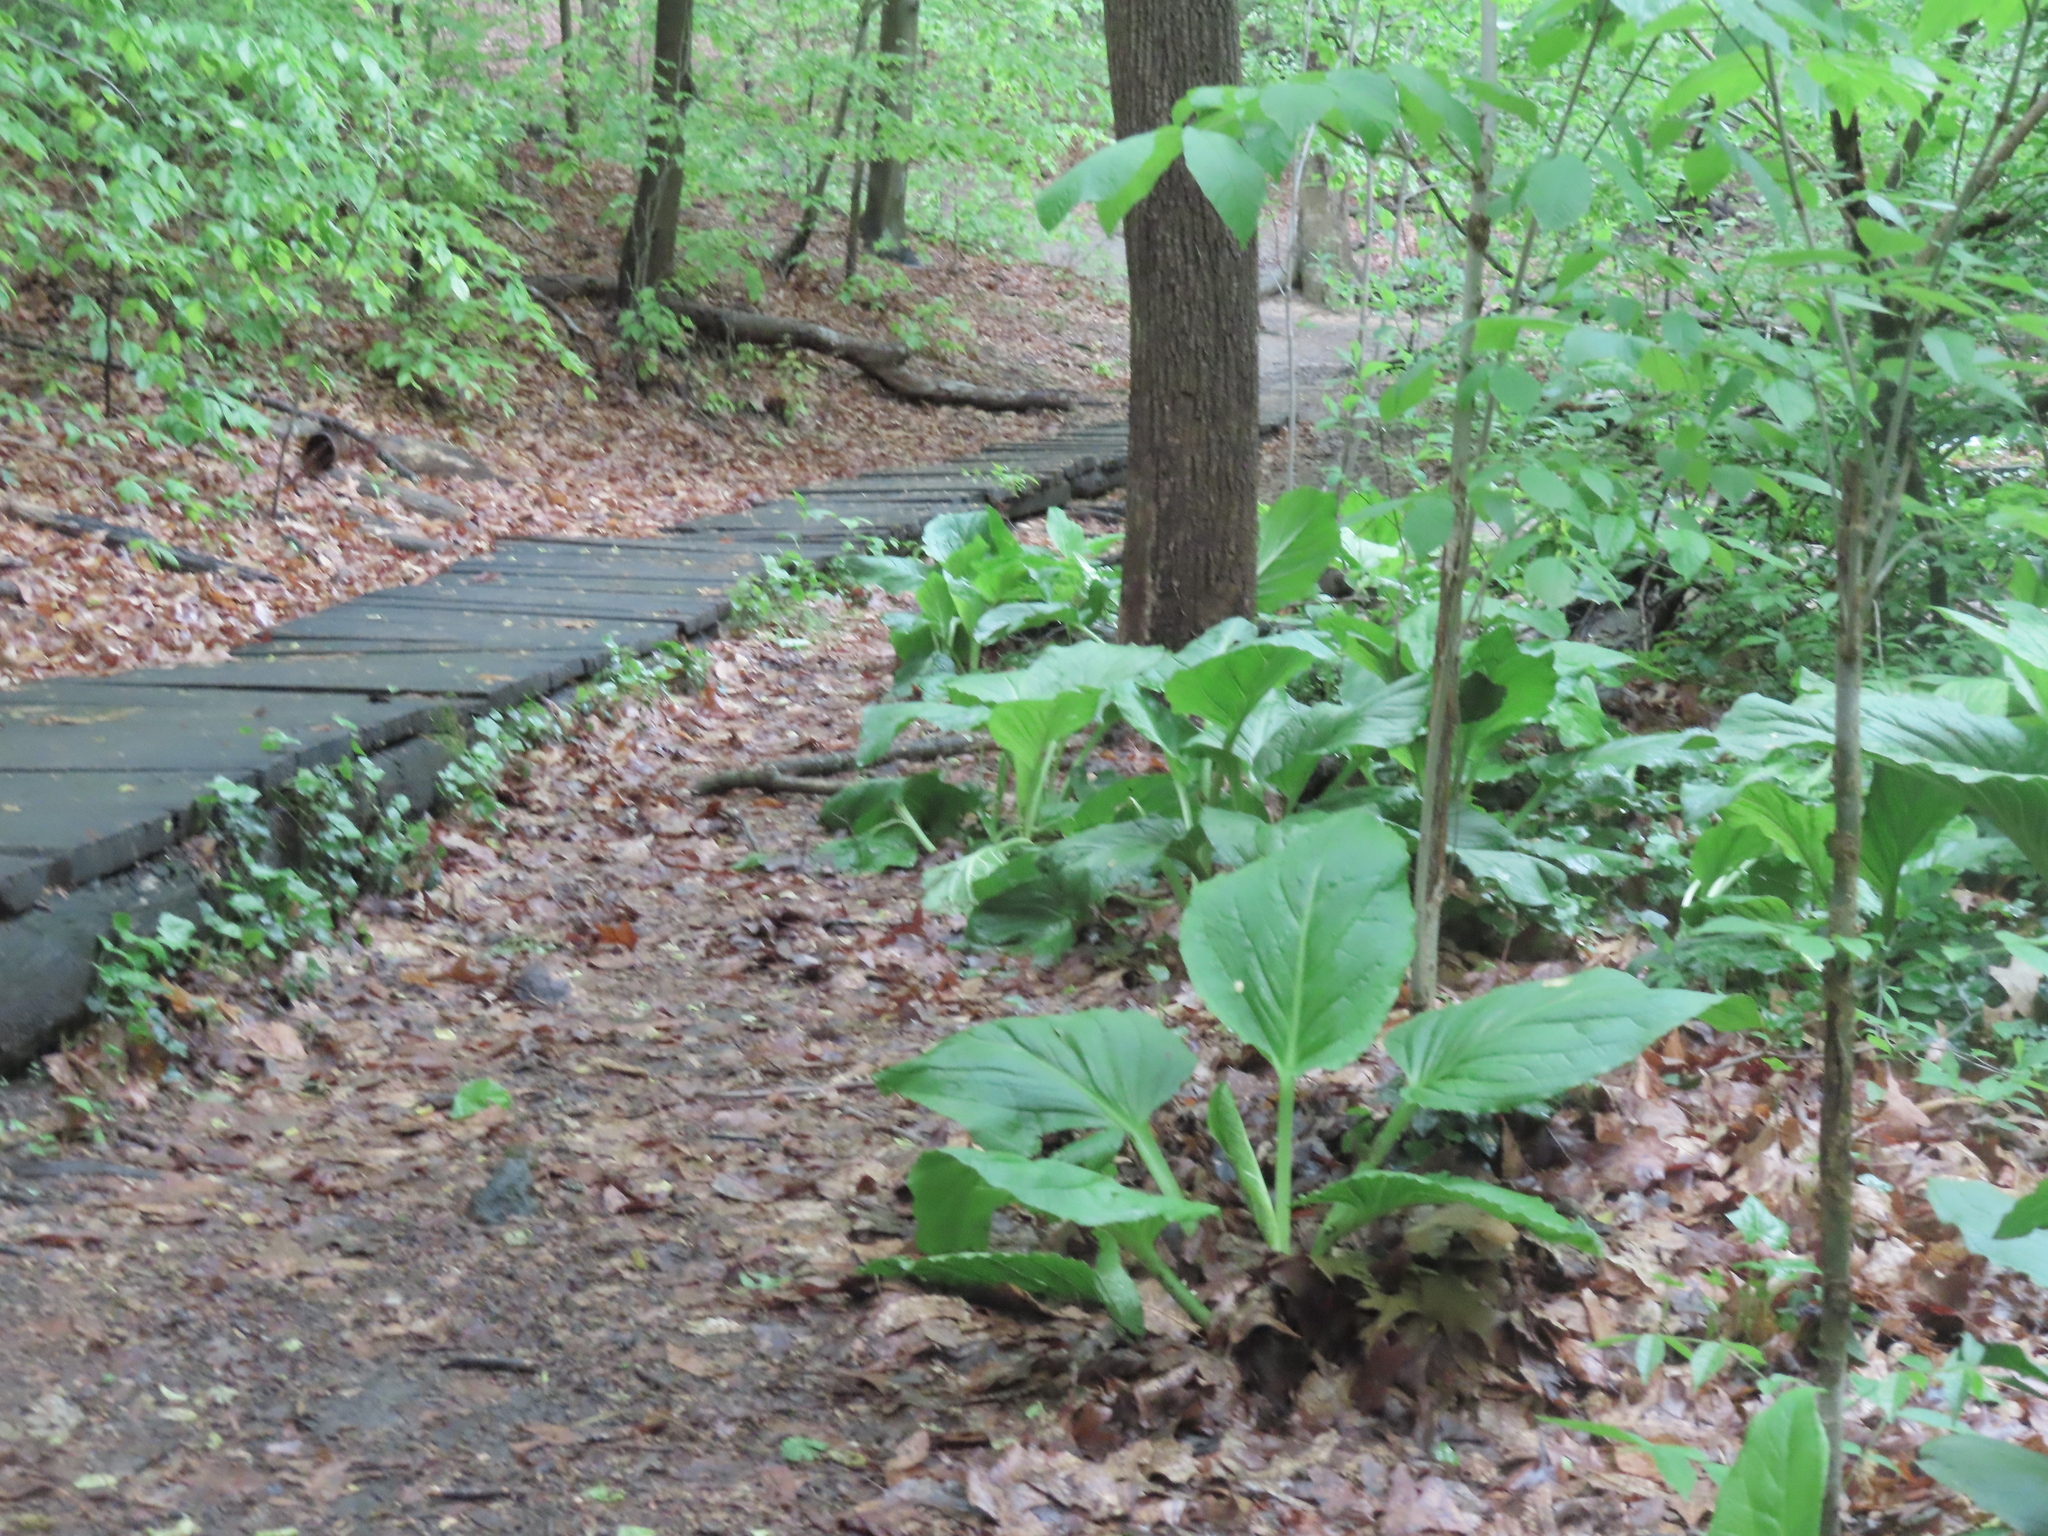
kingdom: Plantae
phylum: Tracheophyta
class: Liliopsida
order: Alismatales
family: Araceae
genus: Symplocarpus
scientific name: Symplocarpus foetidus
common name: Eastern skunk cabbage
